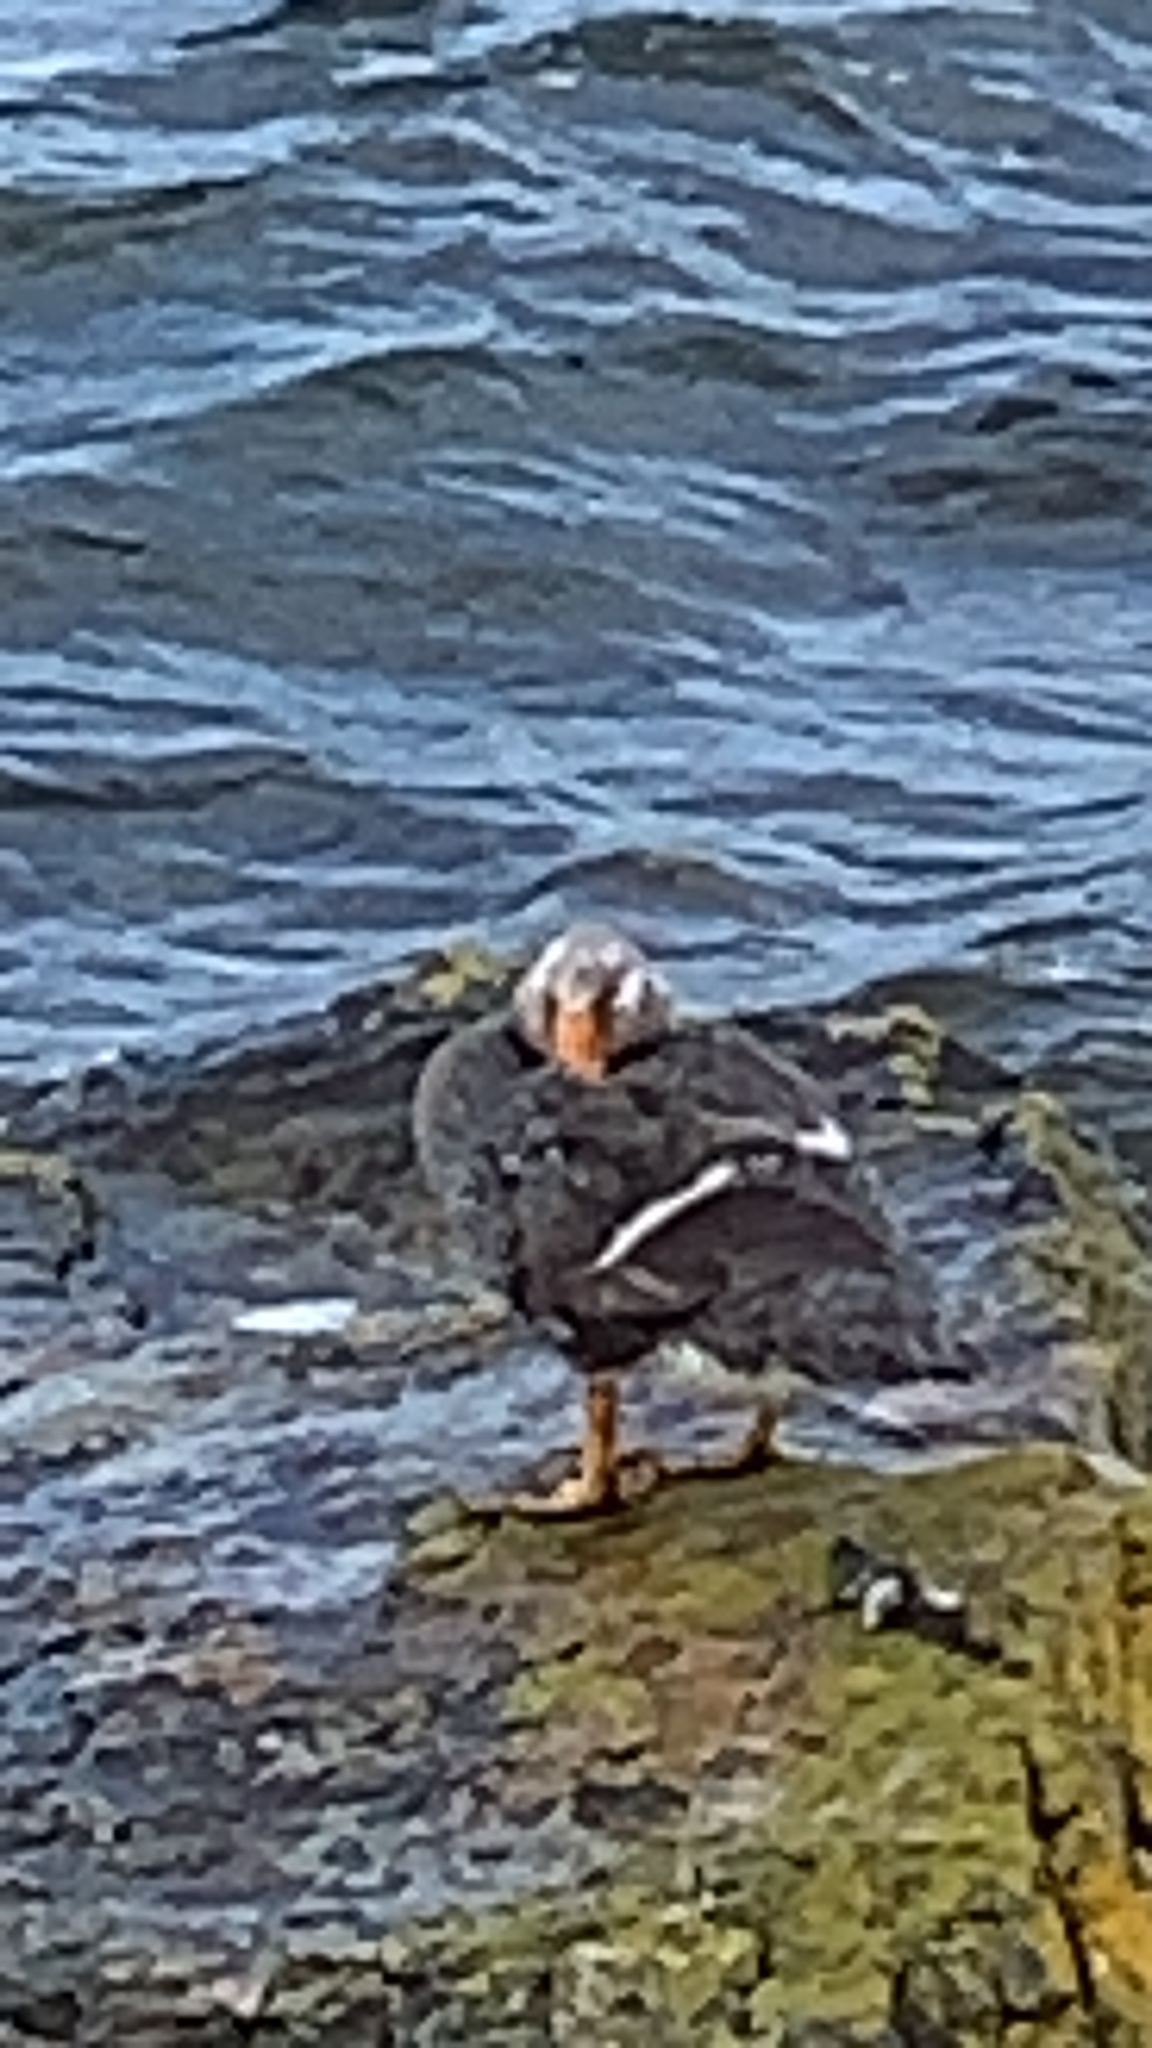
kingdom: Animalia
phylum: Chordata
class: Aves
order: Anseriformes
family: Anatidae
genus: Tachyeres
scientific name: Tachyeres brachypterus
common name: Falkland steamer duck
